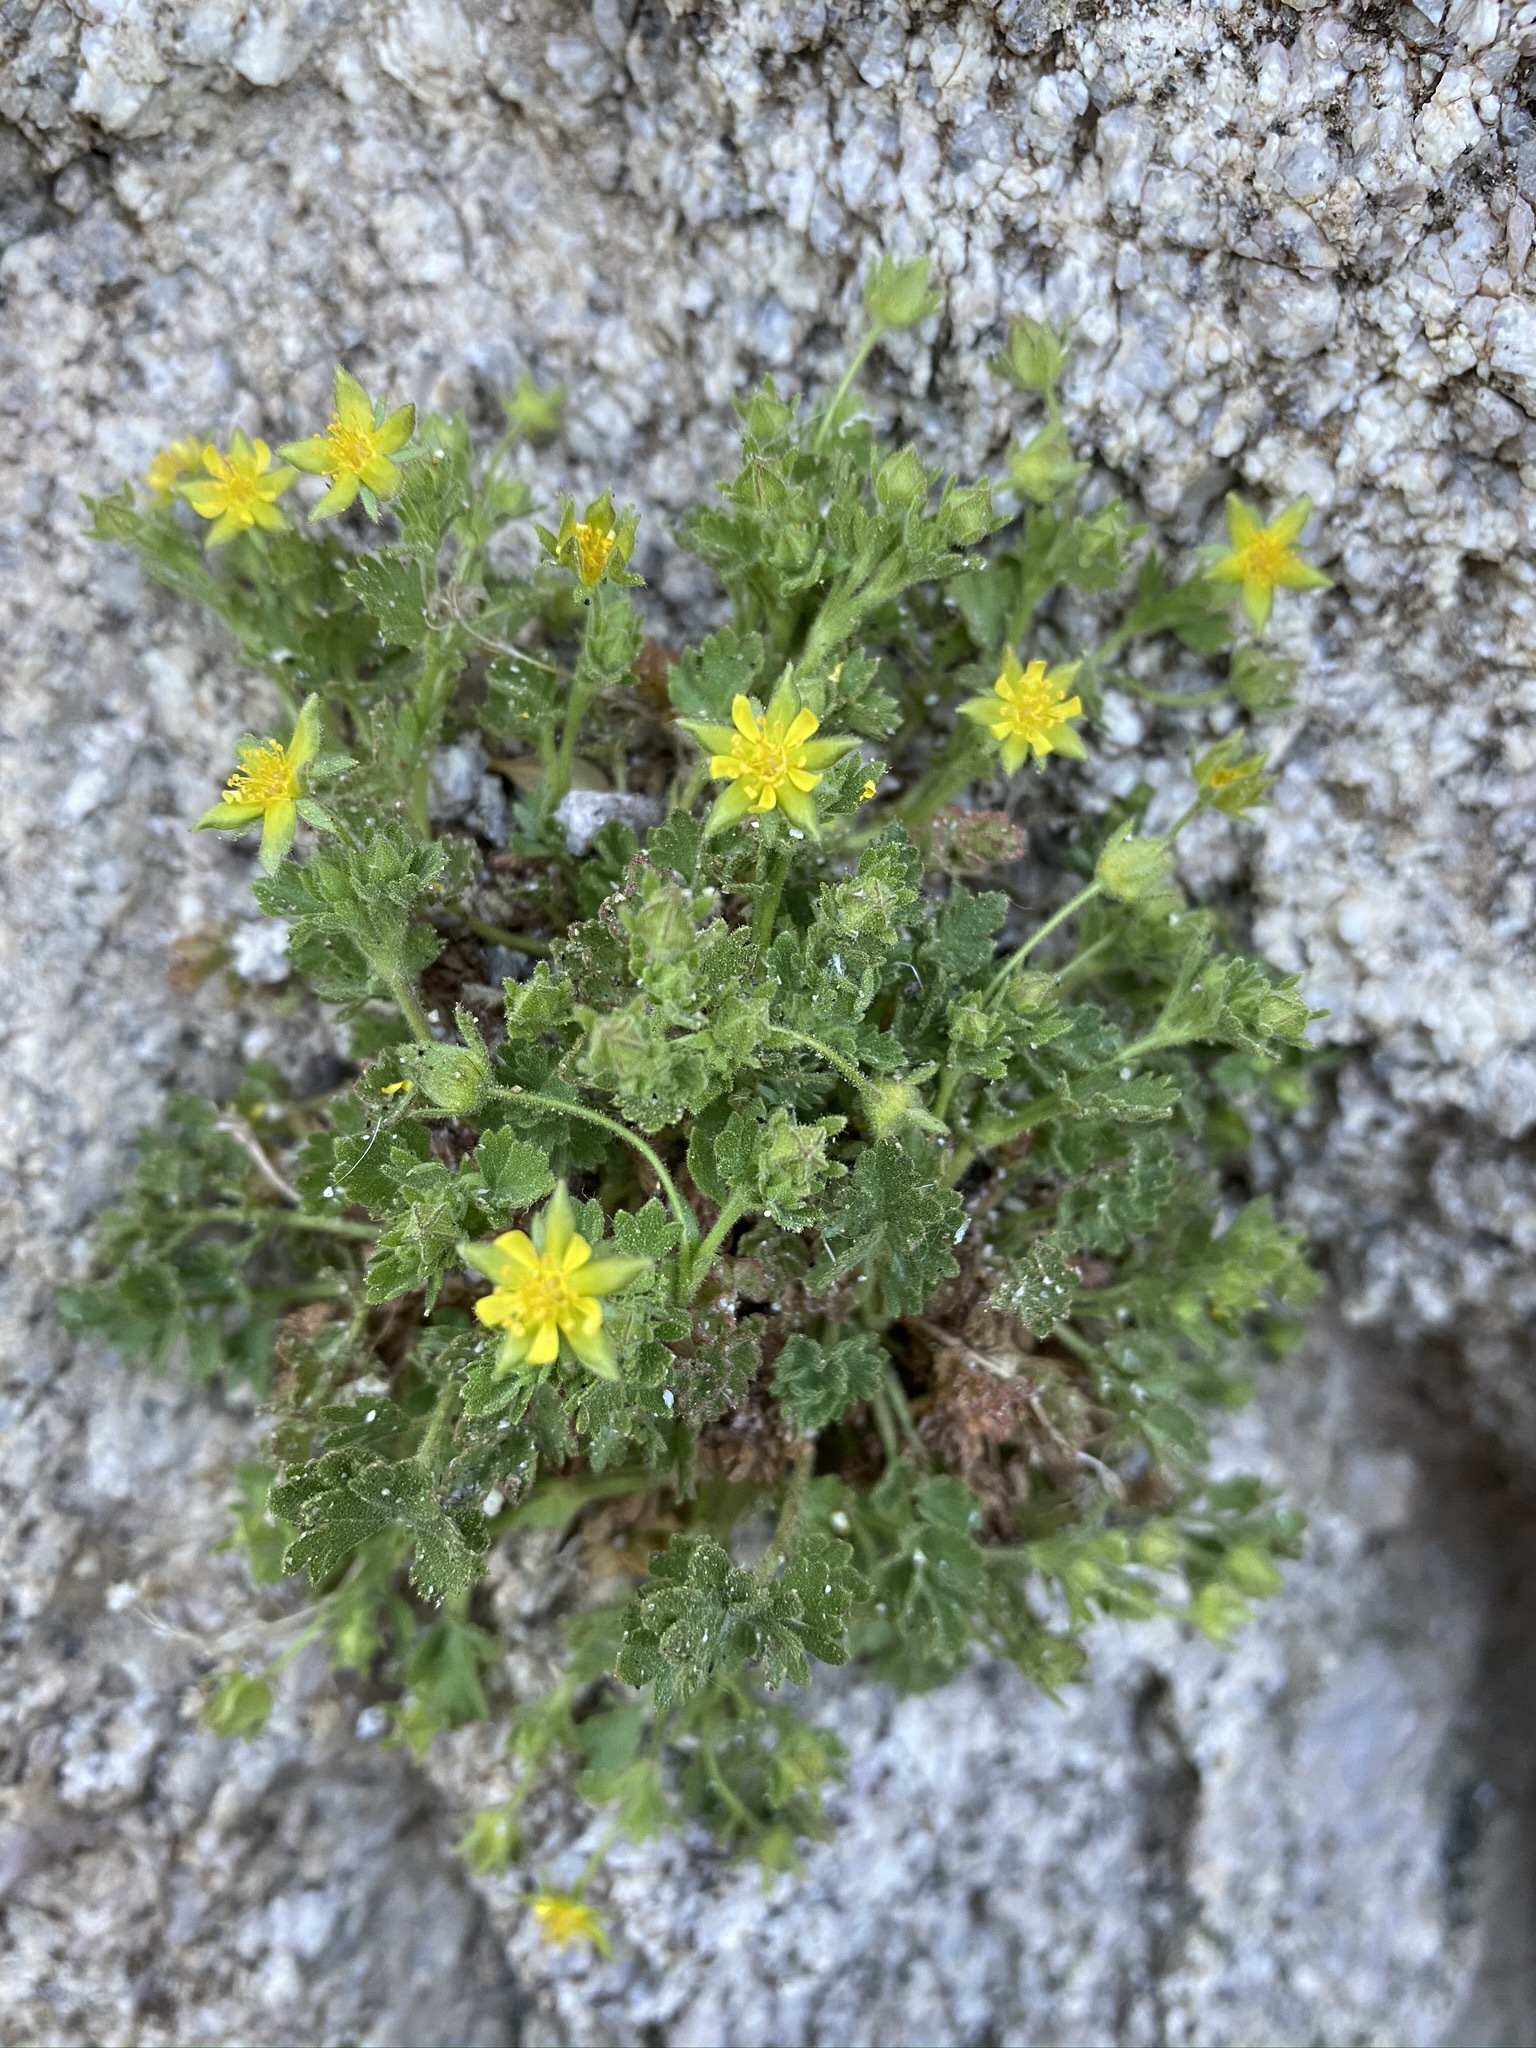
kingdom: Plantae
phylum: Tracheophyta
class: Magnoliopsida
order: Rosales
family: Rosaceae
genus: Potentilla
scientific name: Potentilla saxosa
